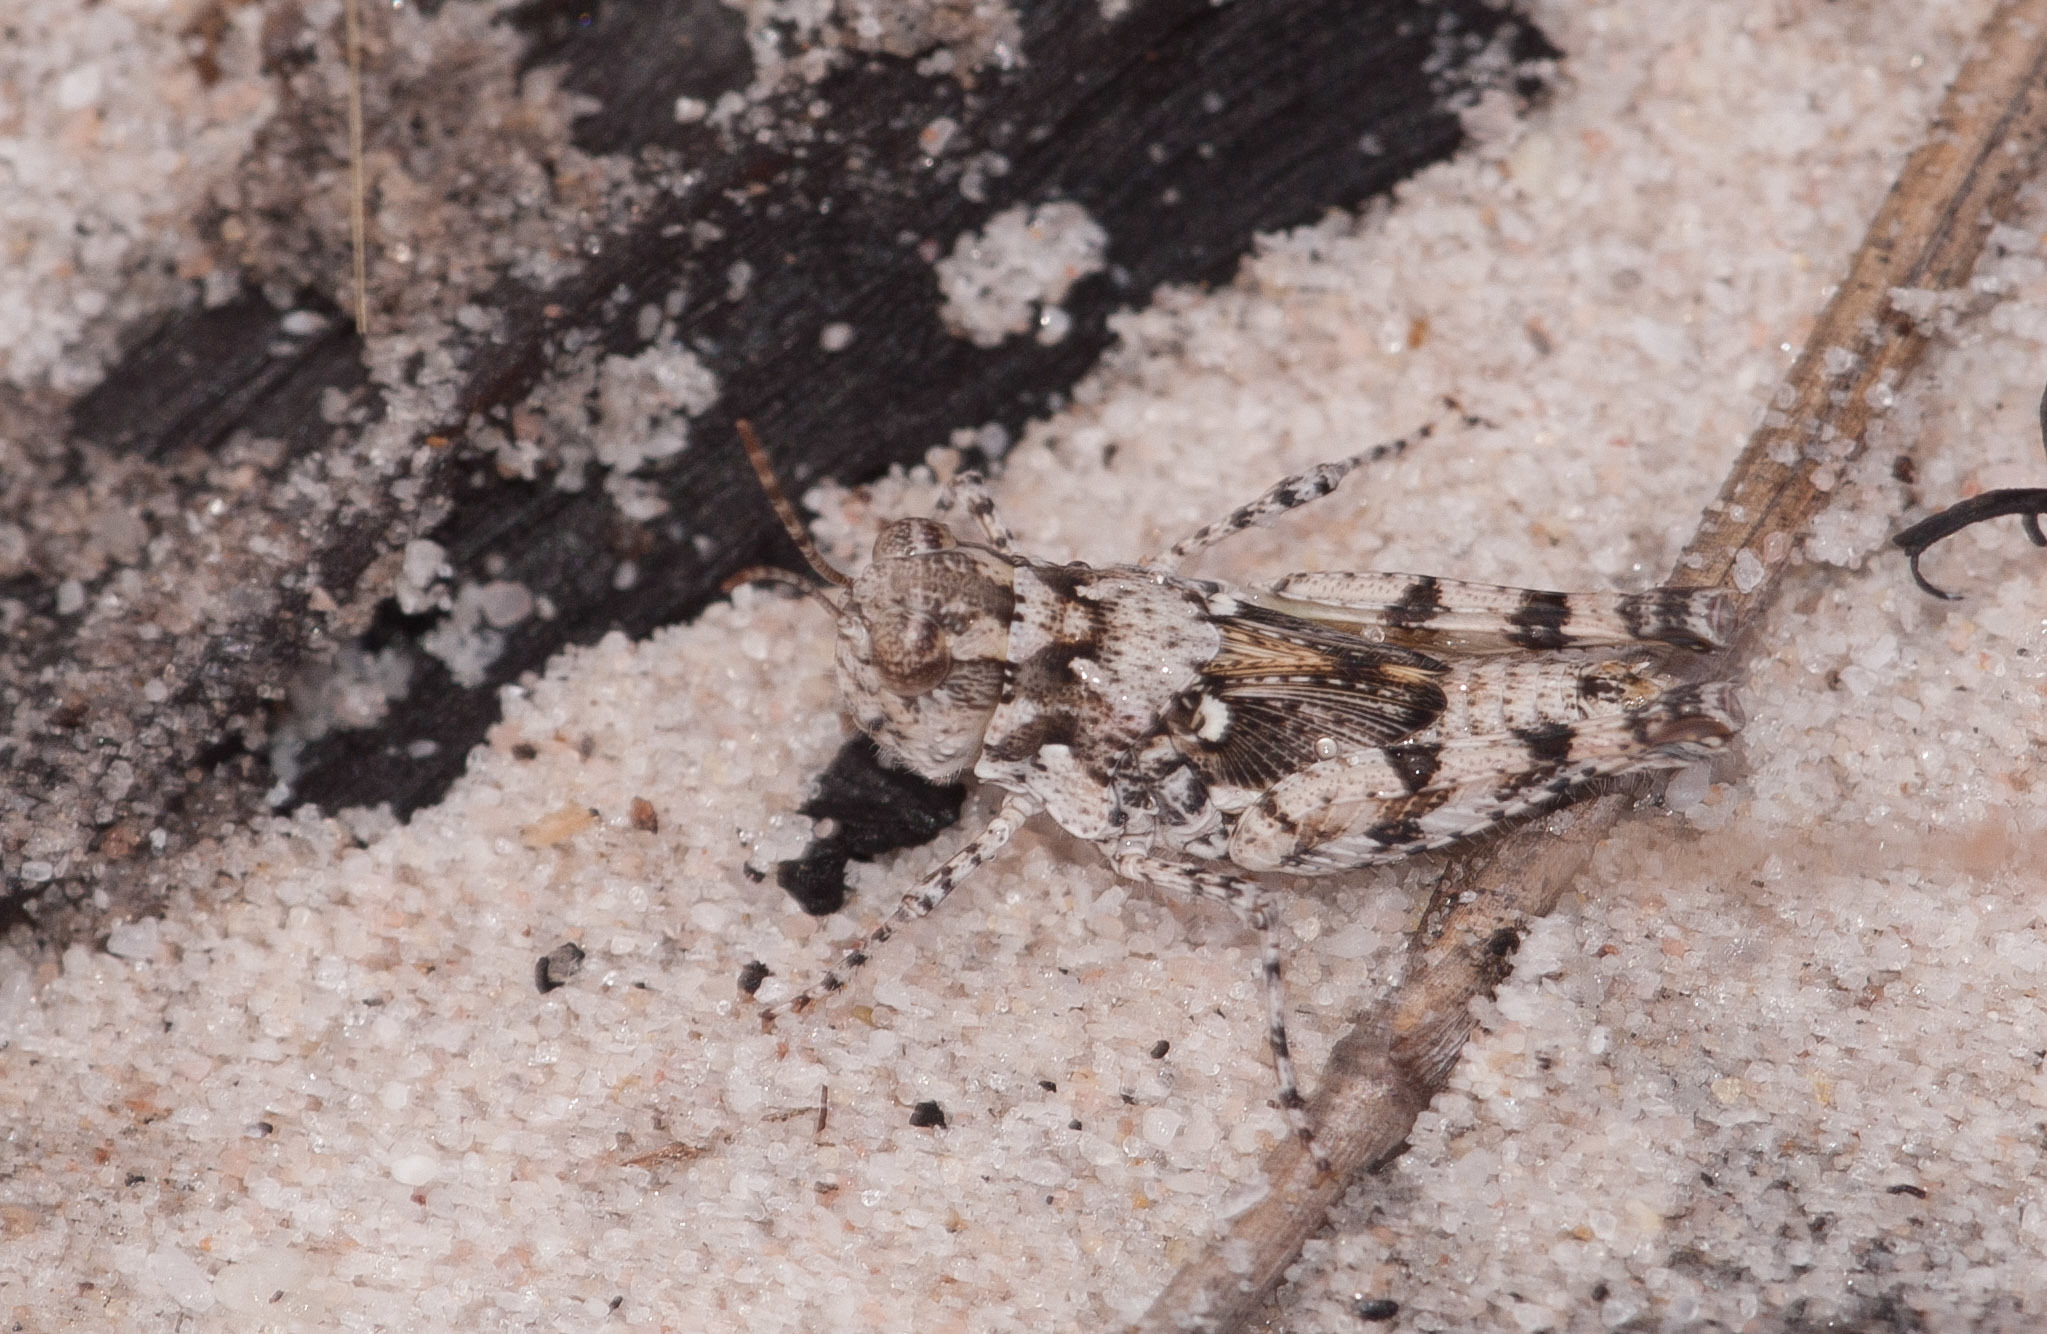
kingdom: Animalia
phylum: Arthropoda
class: Insecta
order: Orthoptera
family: Acrididae
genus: Pycnostictus
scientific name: Pycnostictus seriatus
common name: Common bandwing
